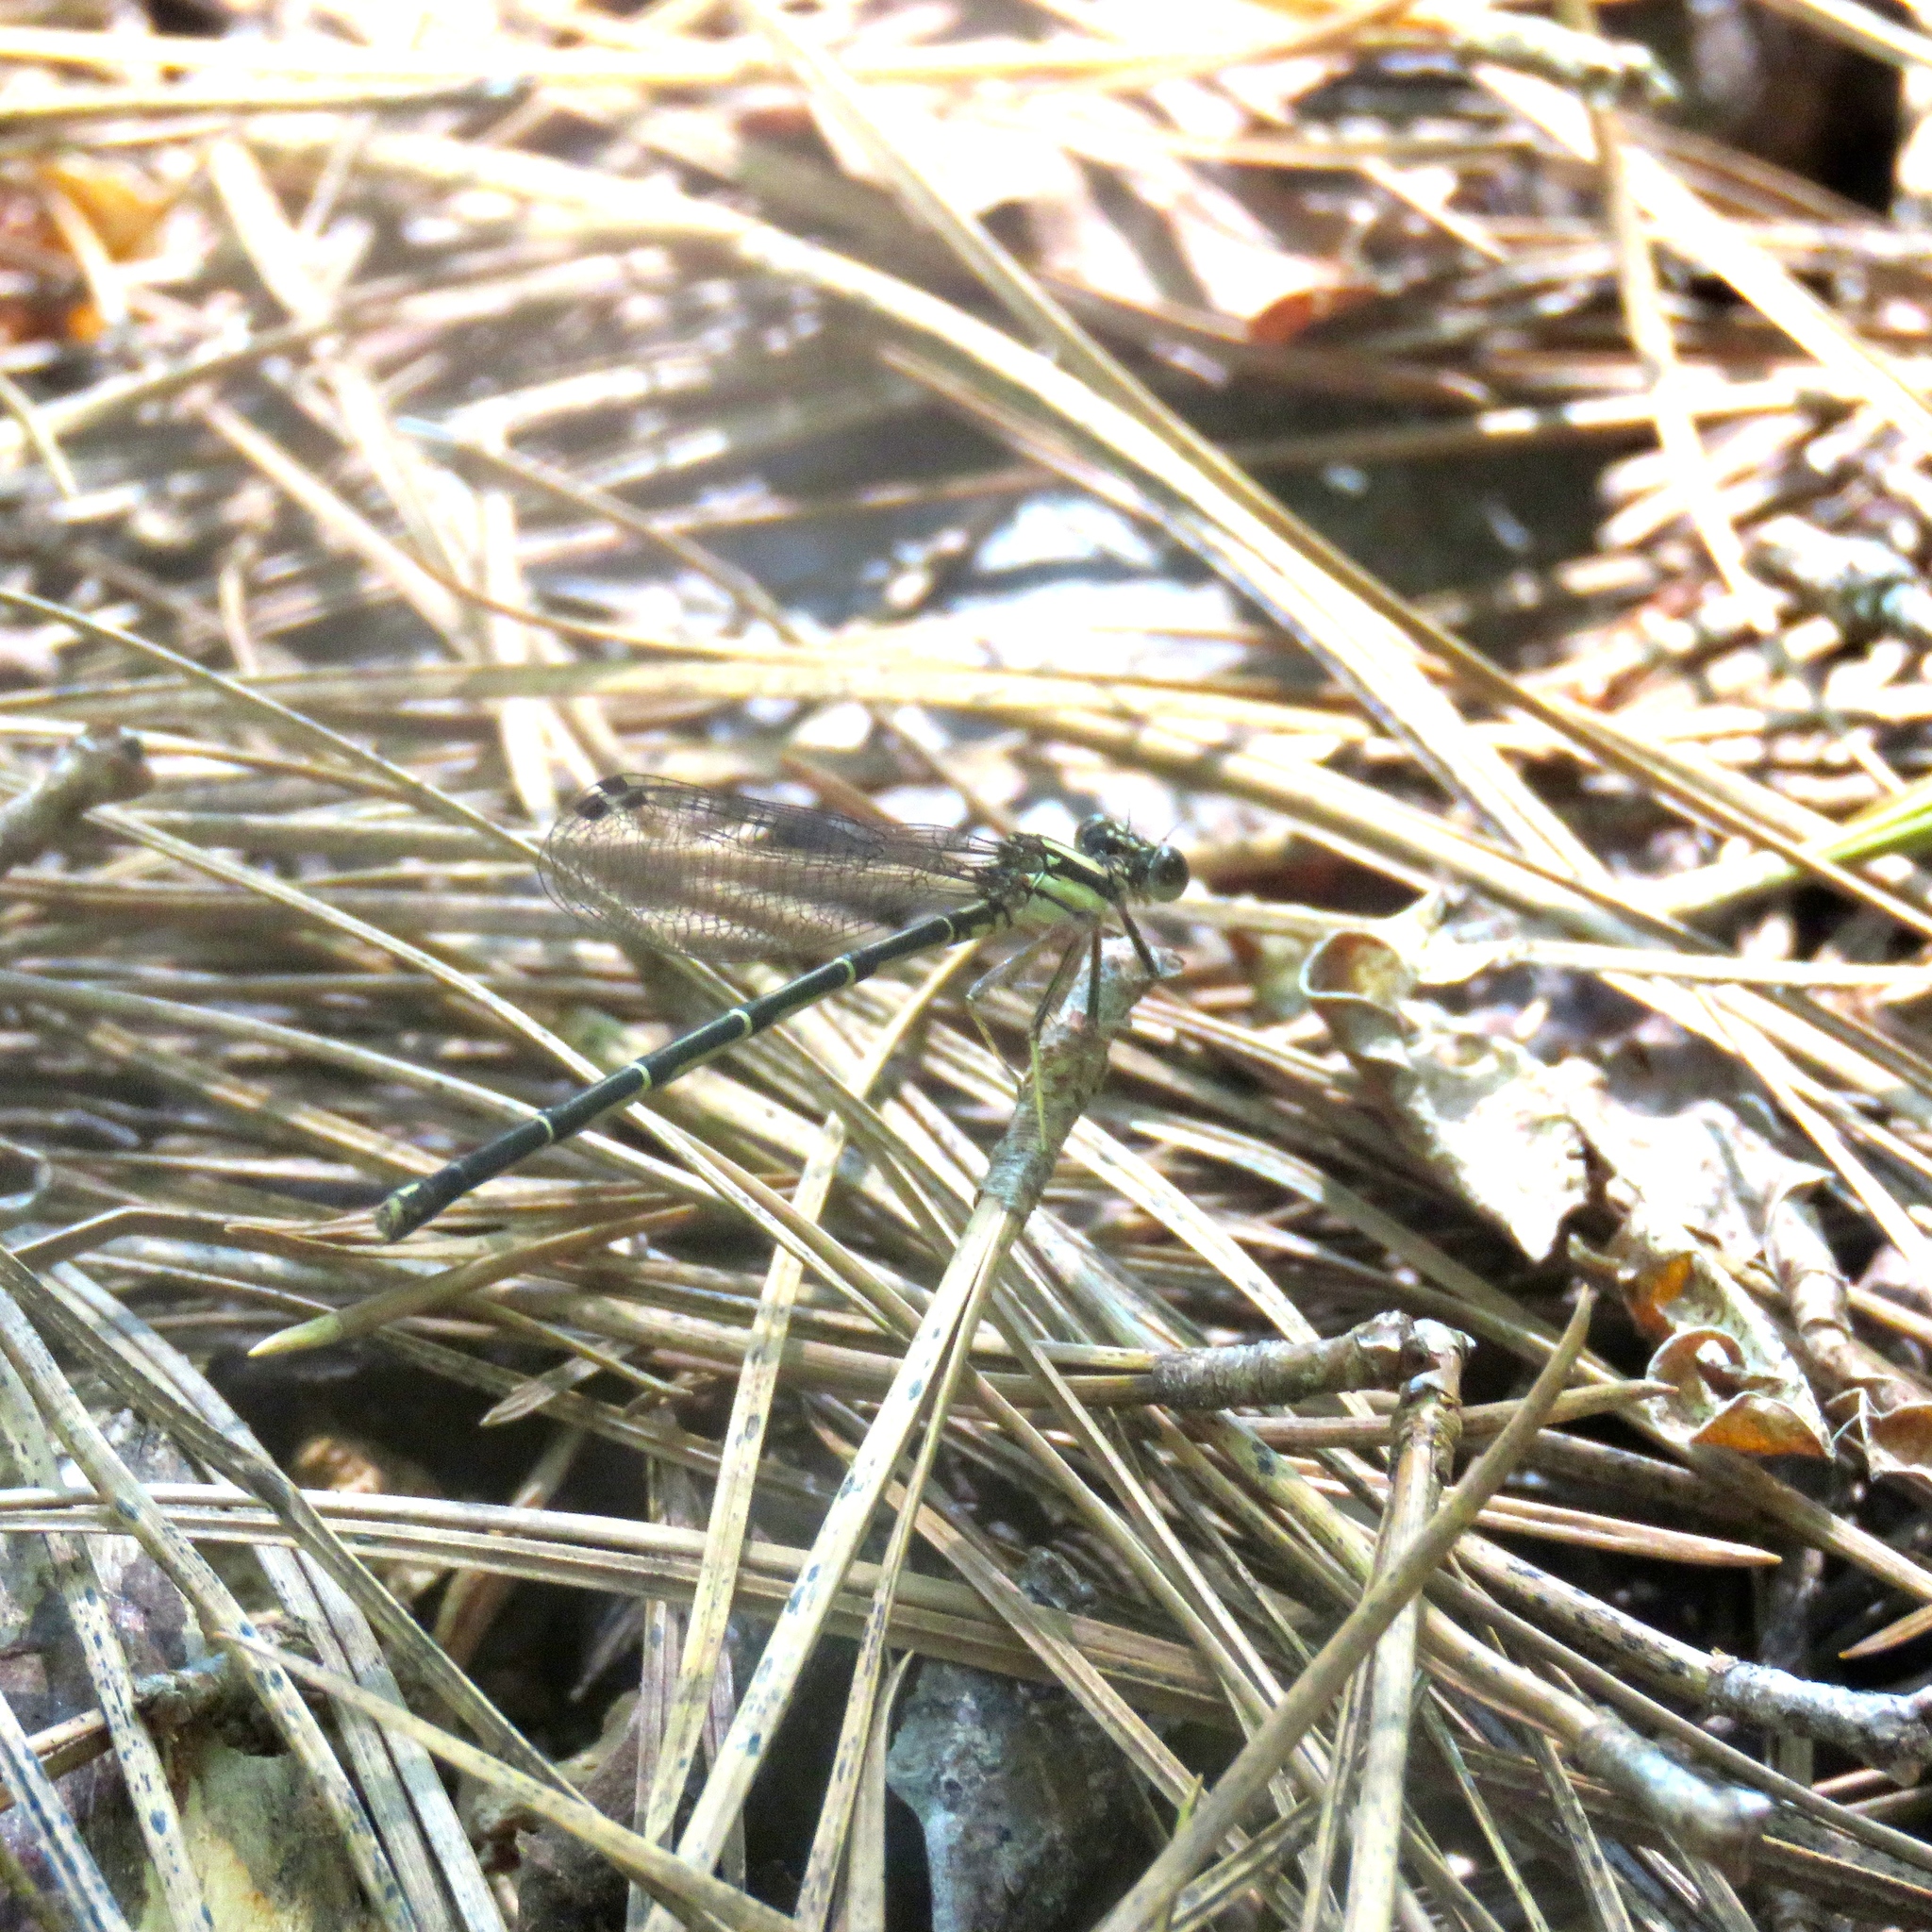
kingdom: Animalia
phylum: Arthropoda
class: Insecta
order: Odonata
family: Coenagrionidae
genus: Argia
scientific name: Argia tibialis
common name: Blue-tipped dancer
